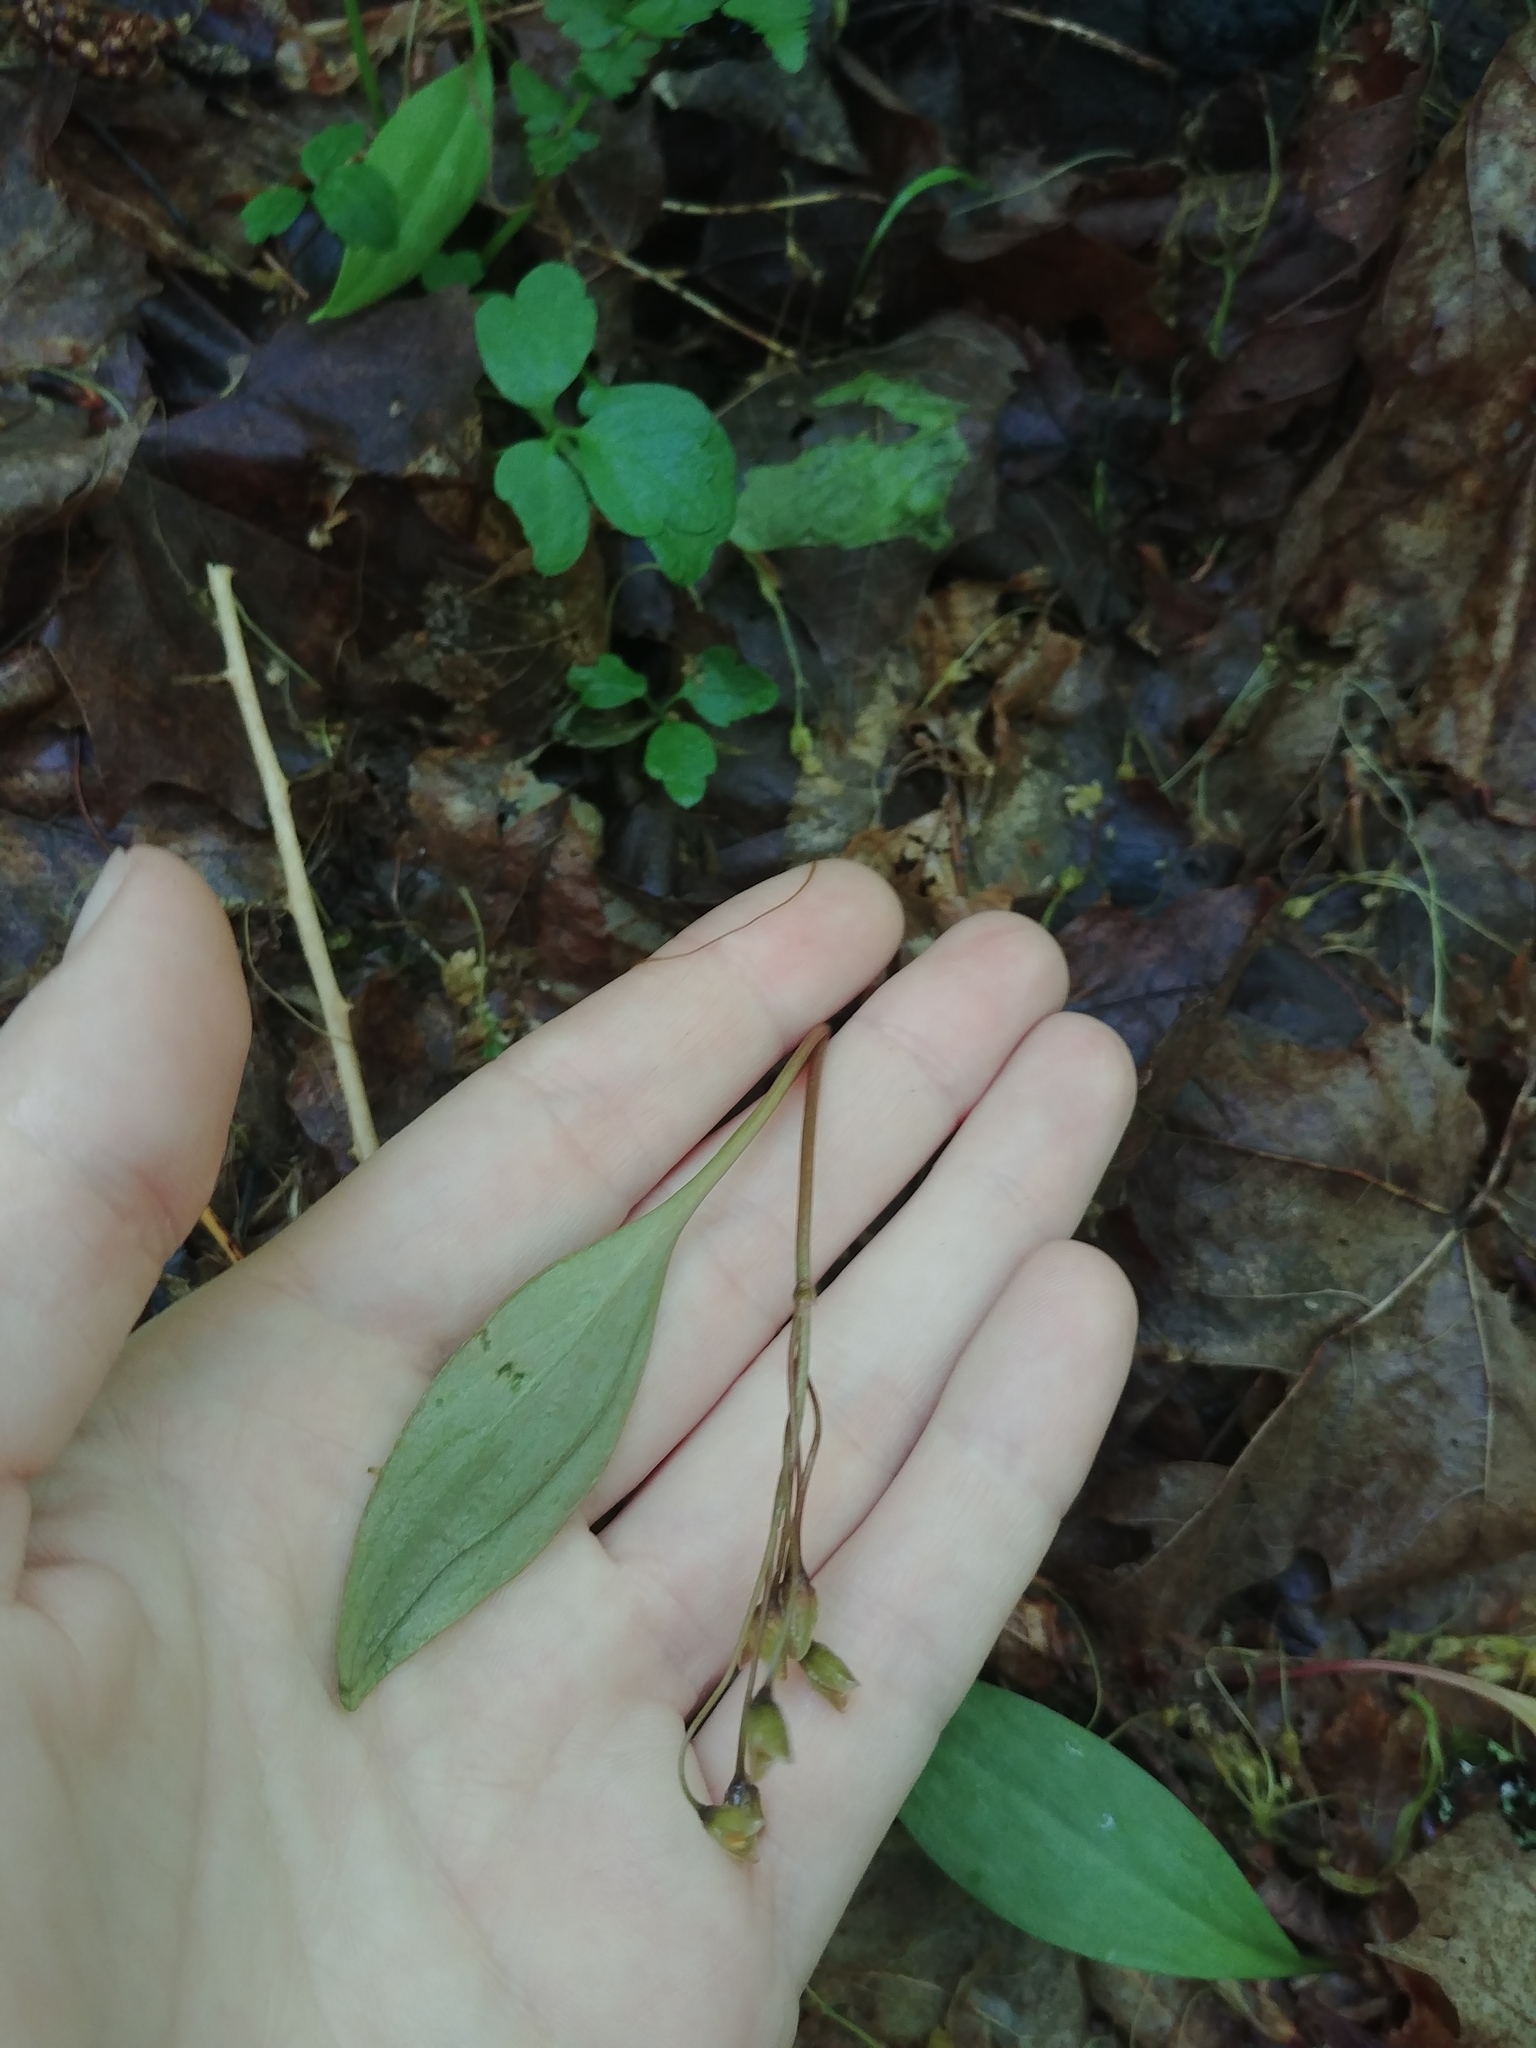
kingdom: Plantae
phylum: Tracheophyta
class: Magnoliopsida
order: Caryophyllales
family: Montiaceae
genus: Claytonia
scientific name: Claytonia caroliniana
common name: Carolina spring beauty
